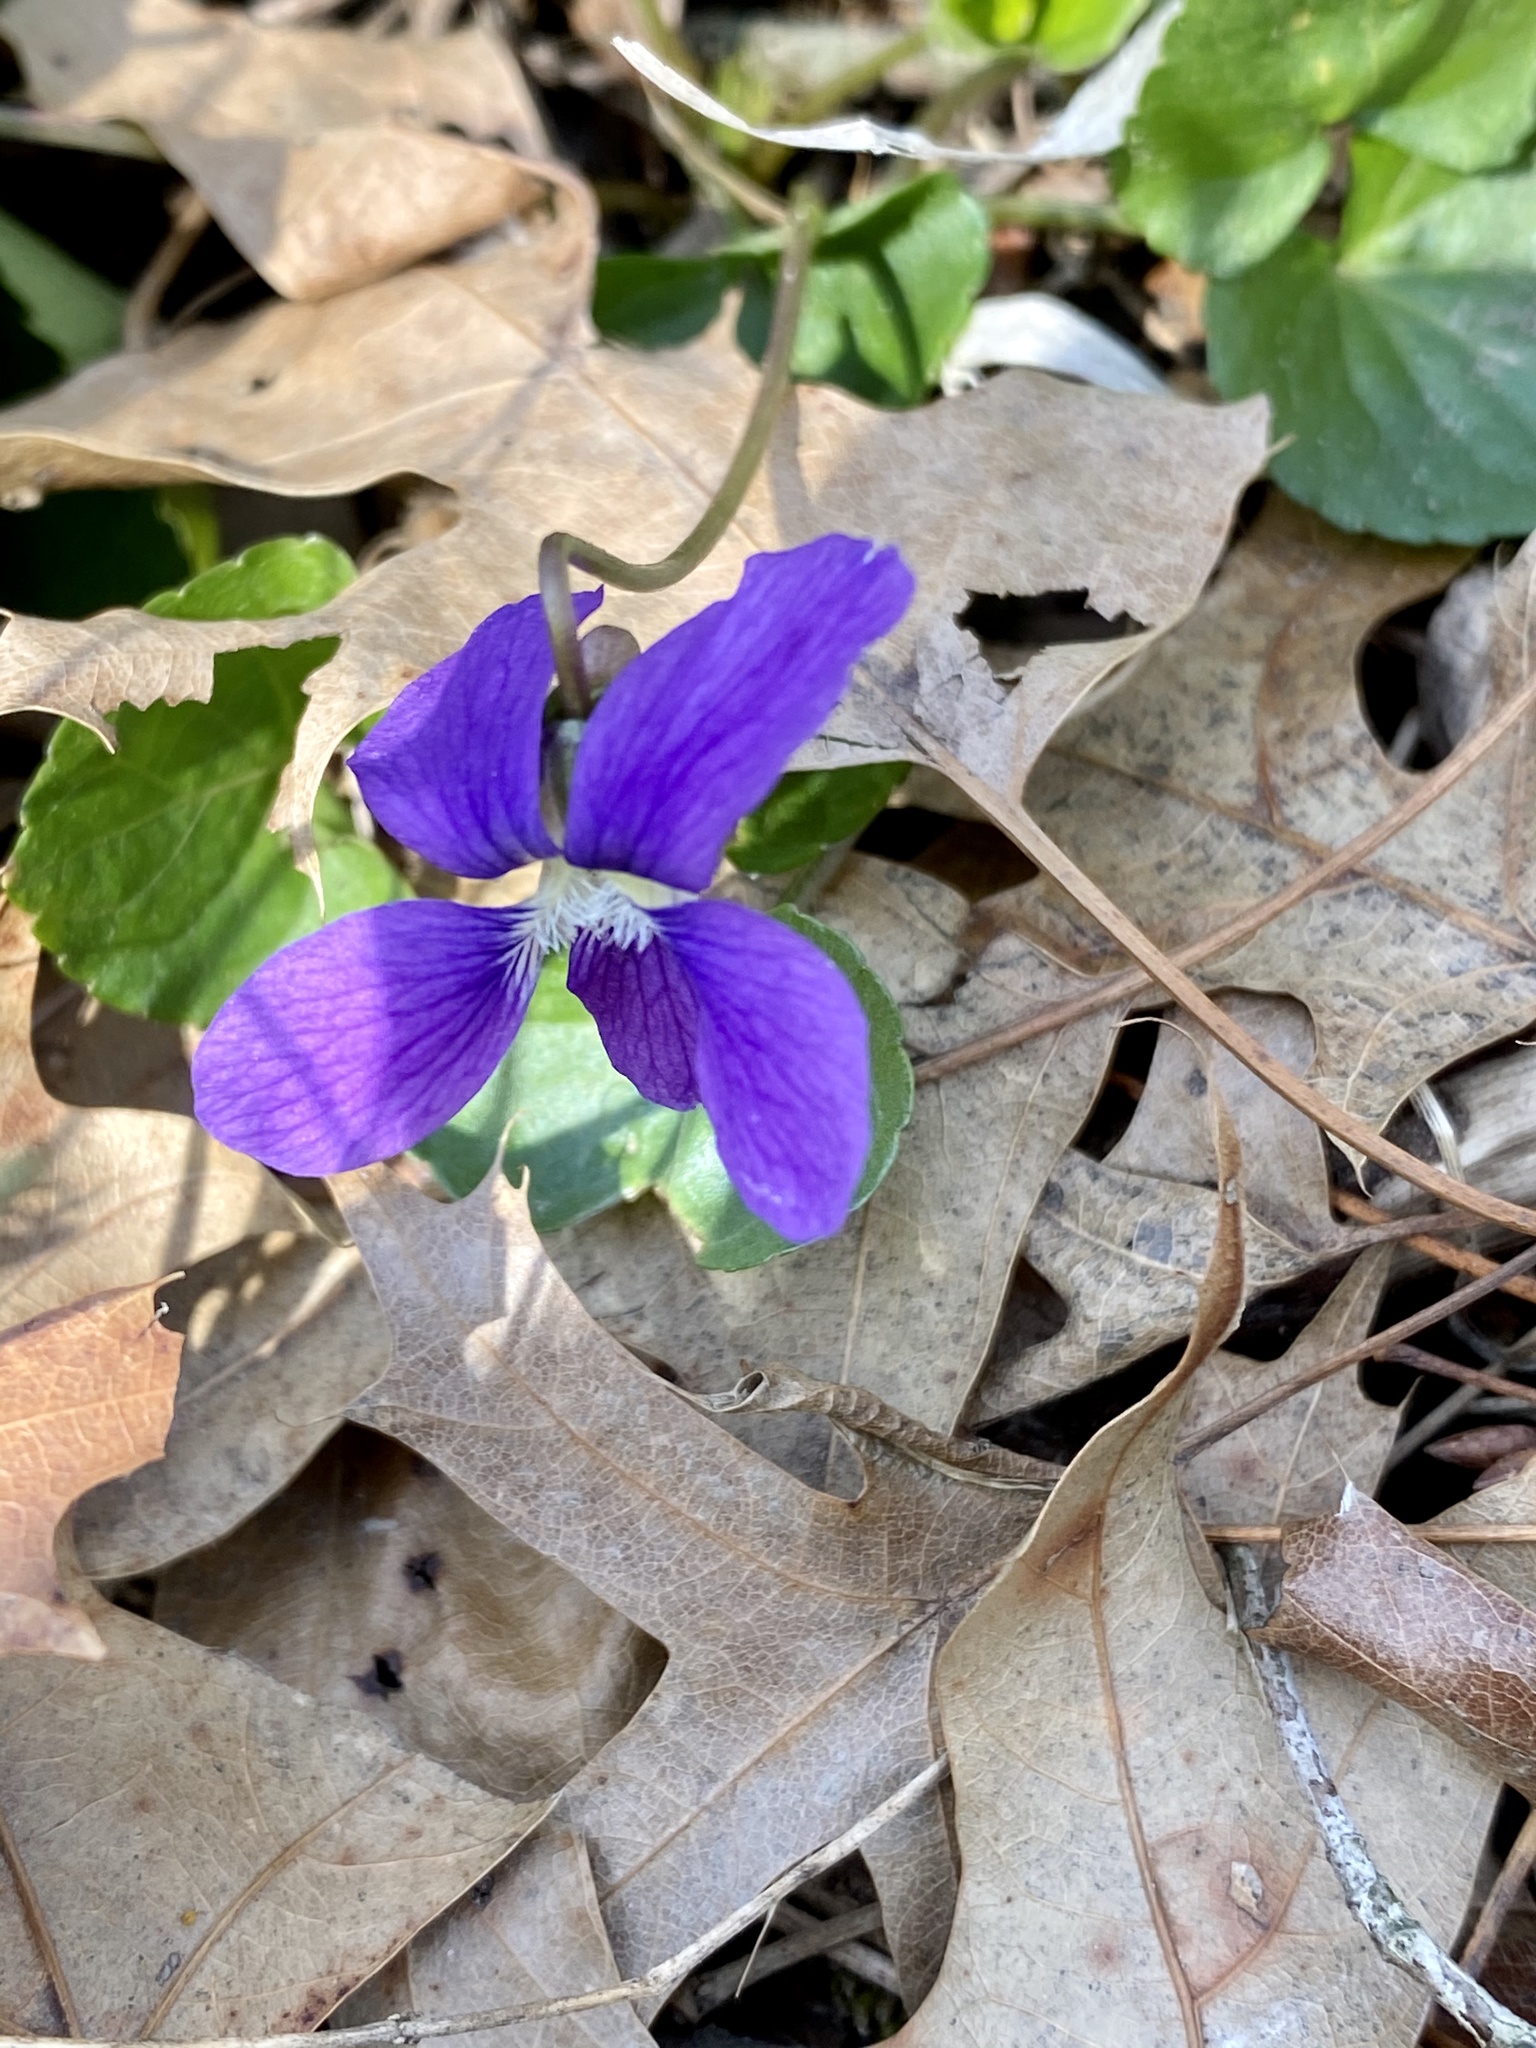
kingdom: Plantae
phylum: Tracheophyta
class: Magnoliopsida
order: Malpighiales
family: Violaceae
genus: Viola
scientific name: Viola sororia
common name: Dooryard violet
